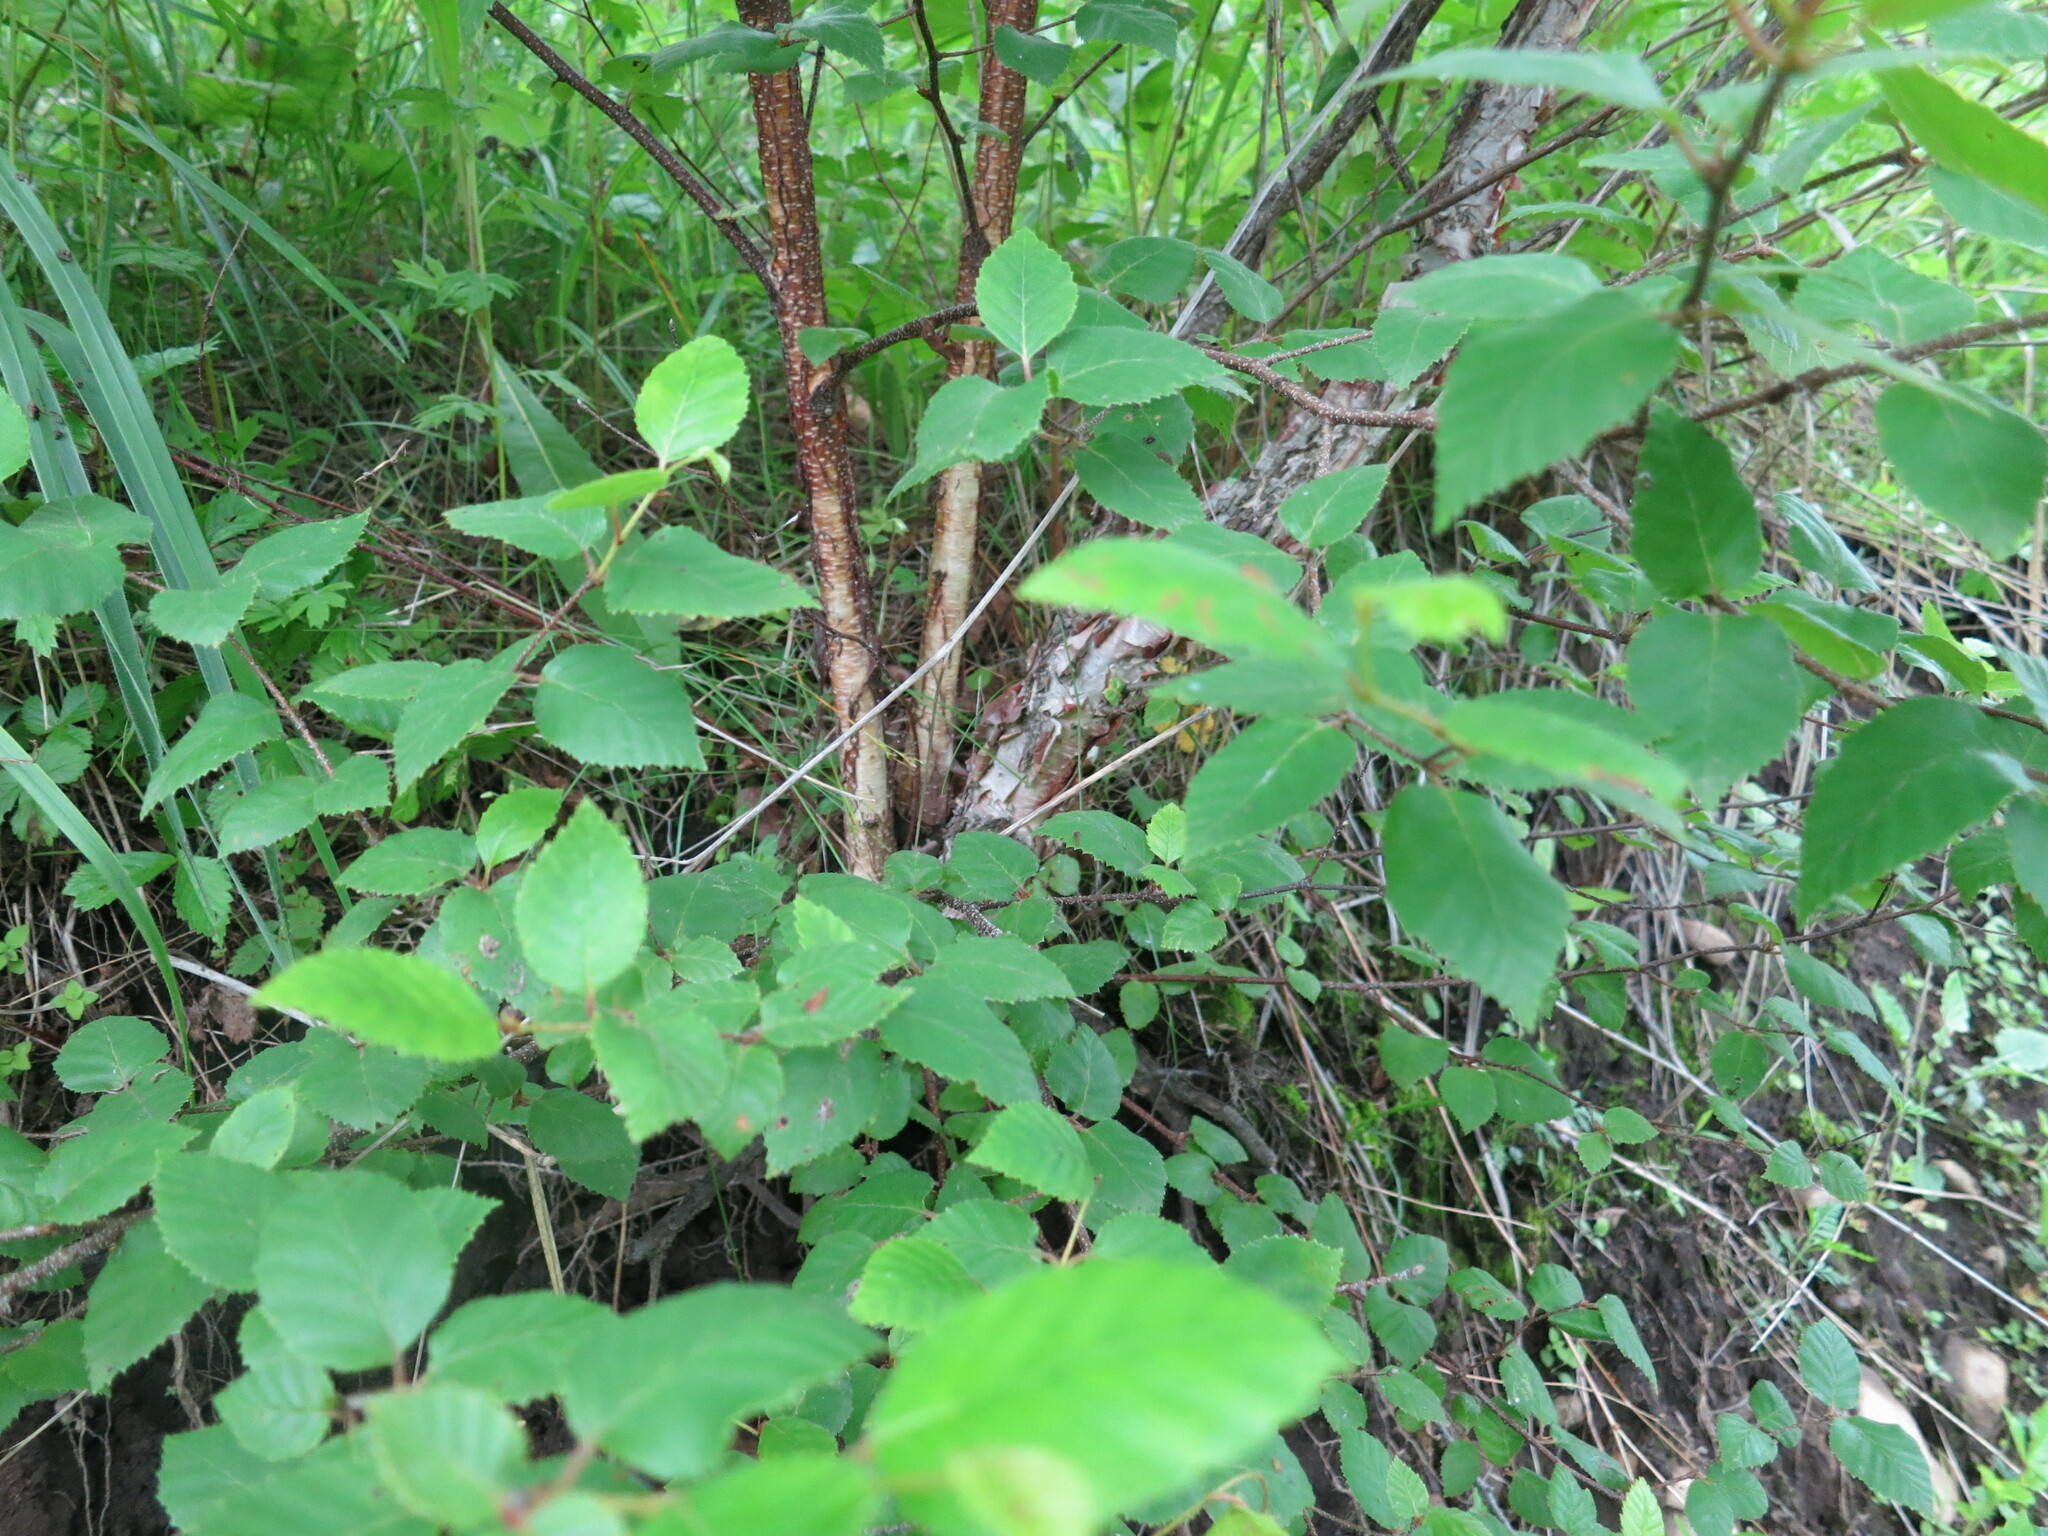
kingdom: Plantae
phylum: Tracheophyta
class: Magnoliopsida
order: Fagales
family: Betulaceae
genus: Betula
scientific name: Betula dauurica
